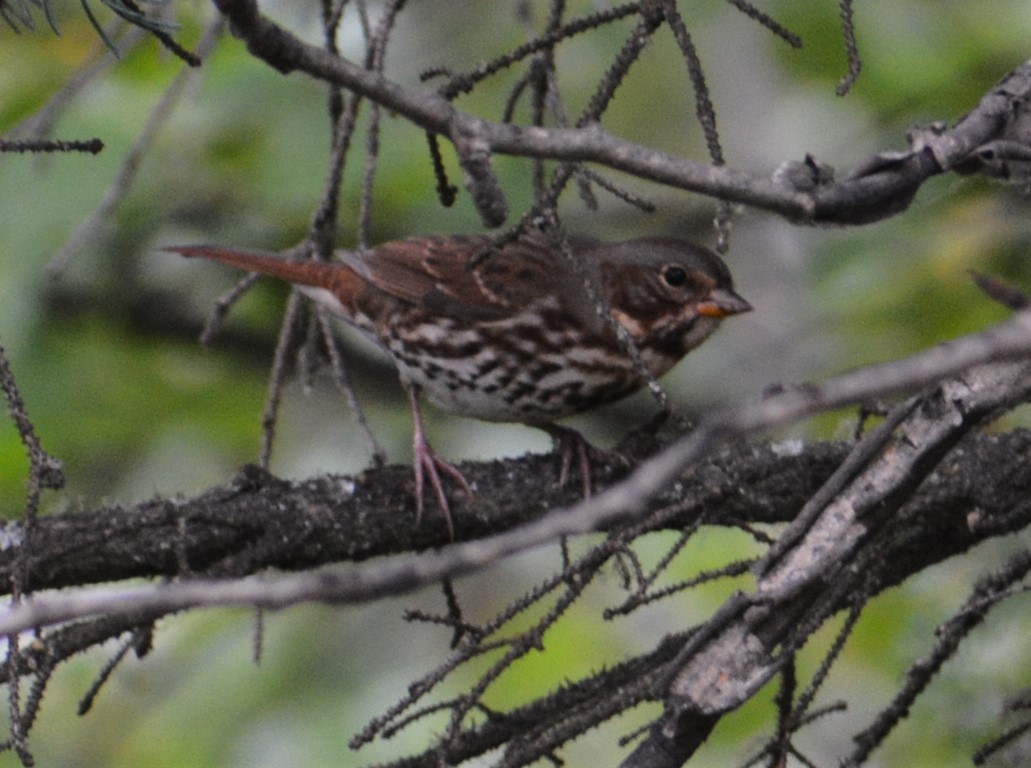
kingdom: Animalia
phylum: Chordata
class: Aves
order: Passeriformes
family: Passerellidae
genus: Passerella
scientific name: Passerella iliaca
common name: Fox sparrow
